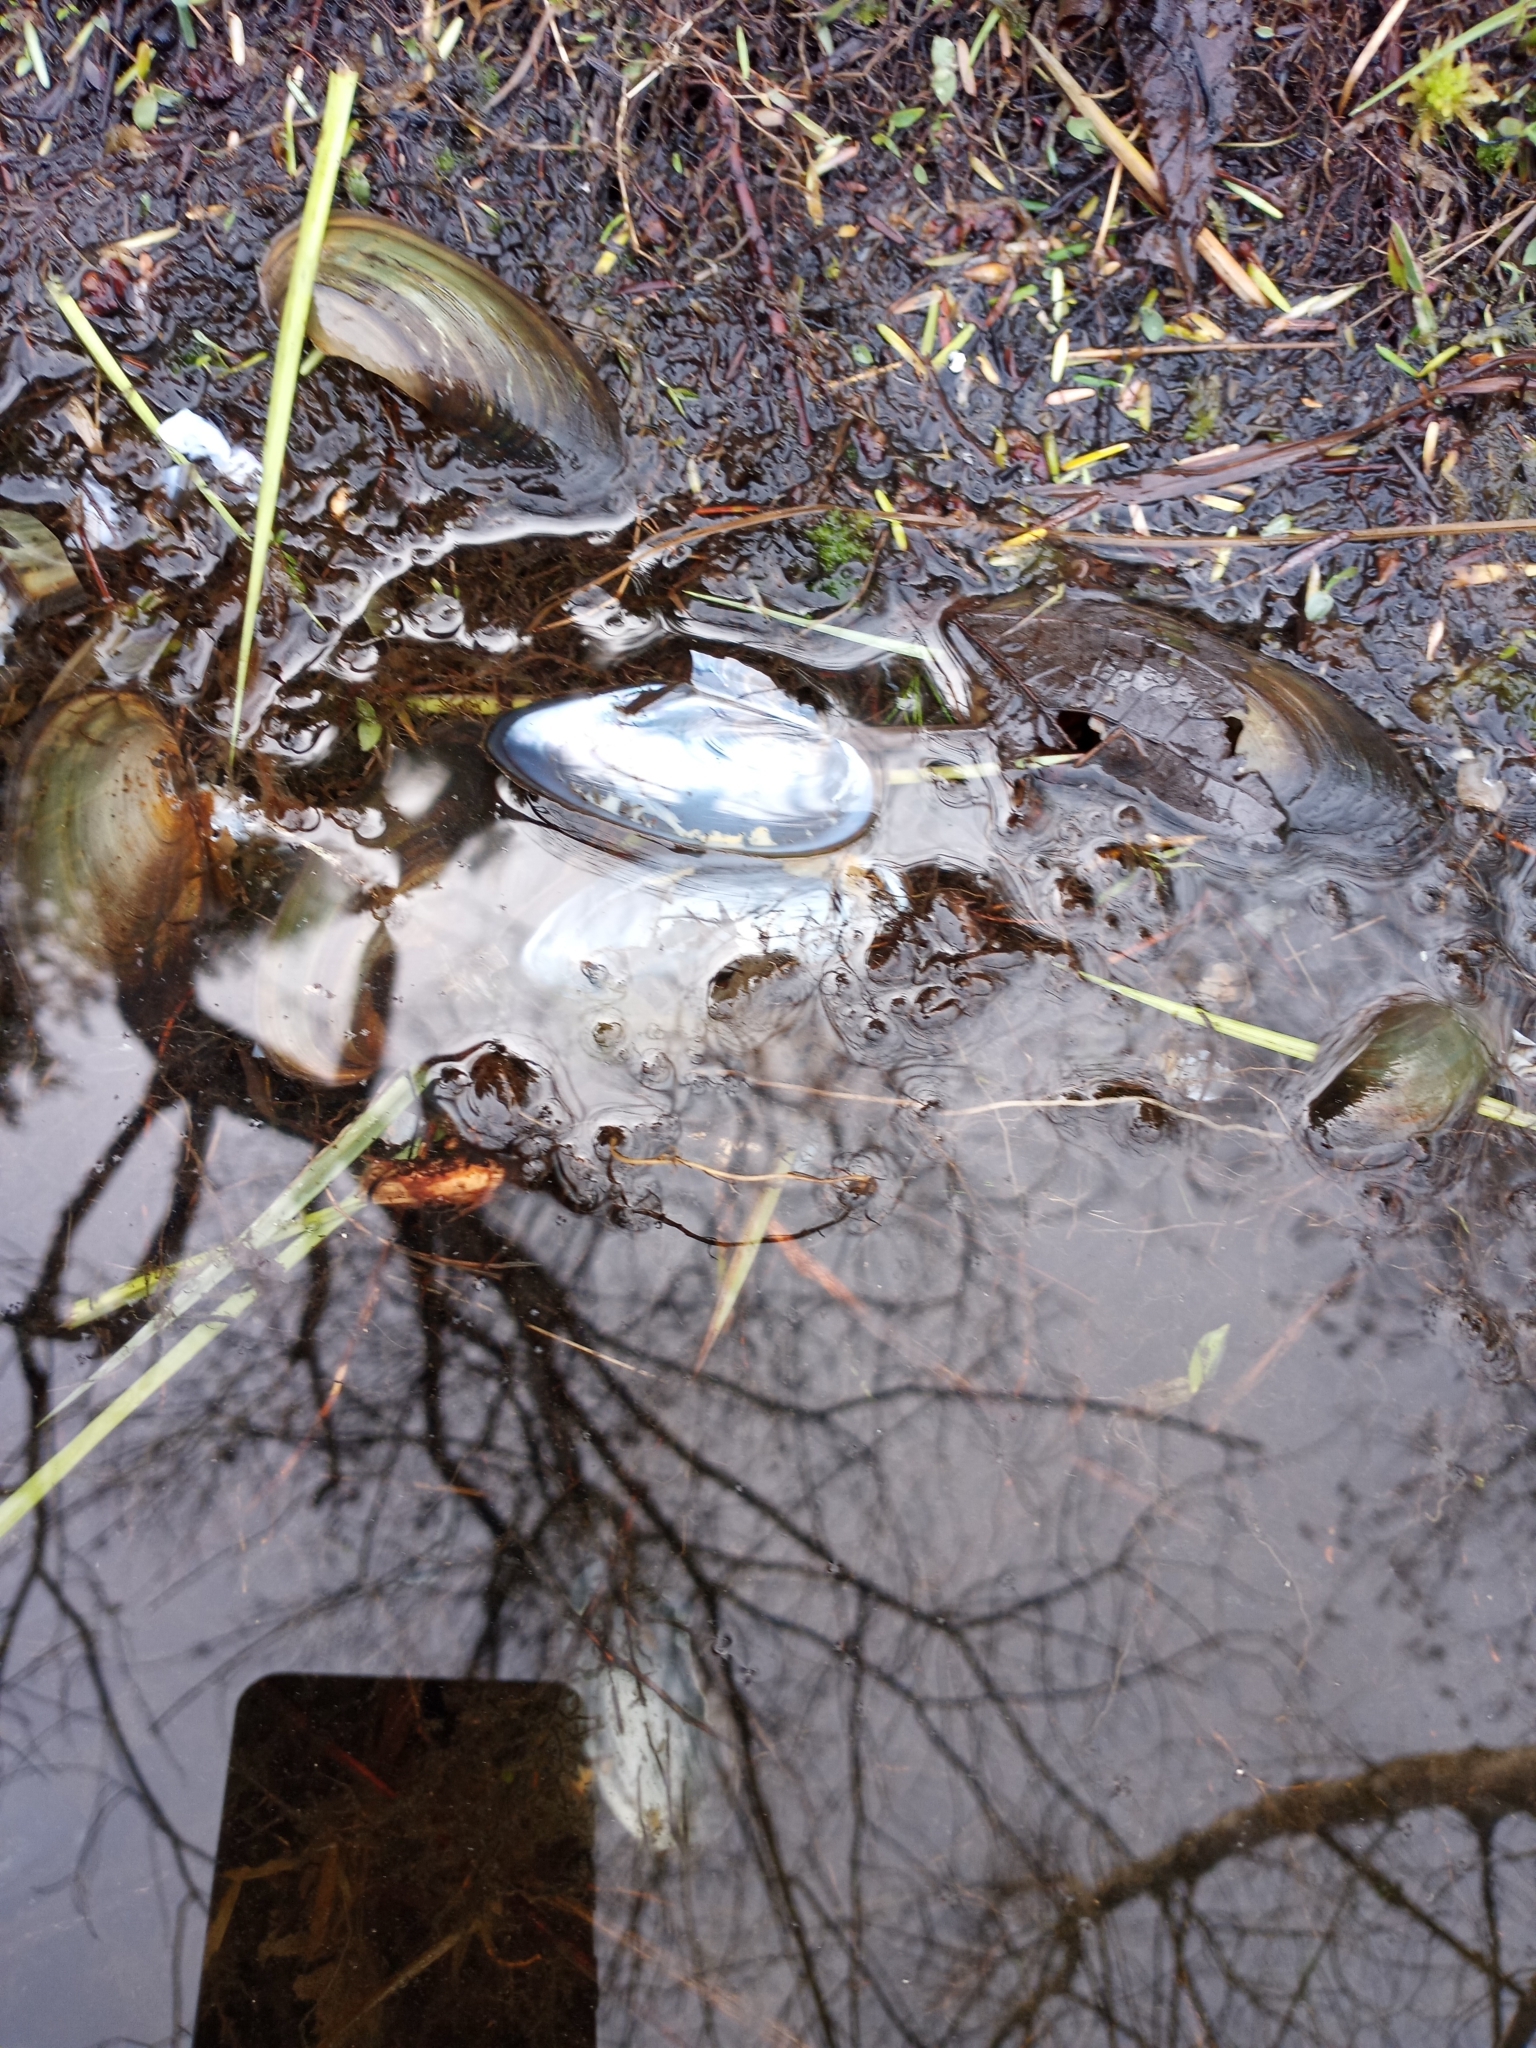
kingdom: Animalia
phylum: Mollusca
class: Bivalvia
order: Unionida
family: Unionidae
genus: Utterbackia
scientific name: Utterbackia imbecillis
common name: Paper pondshell
